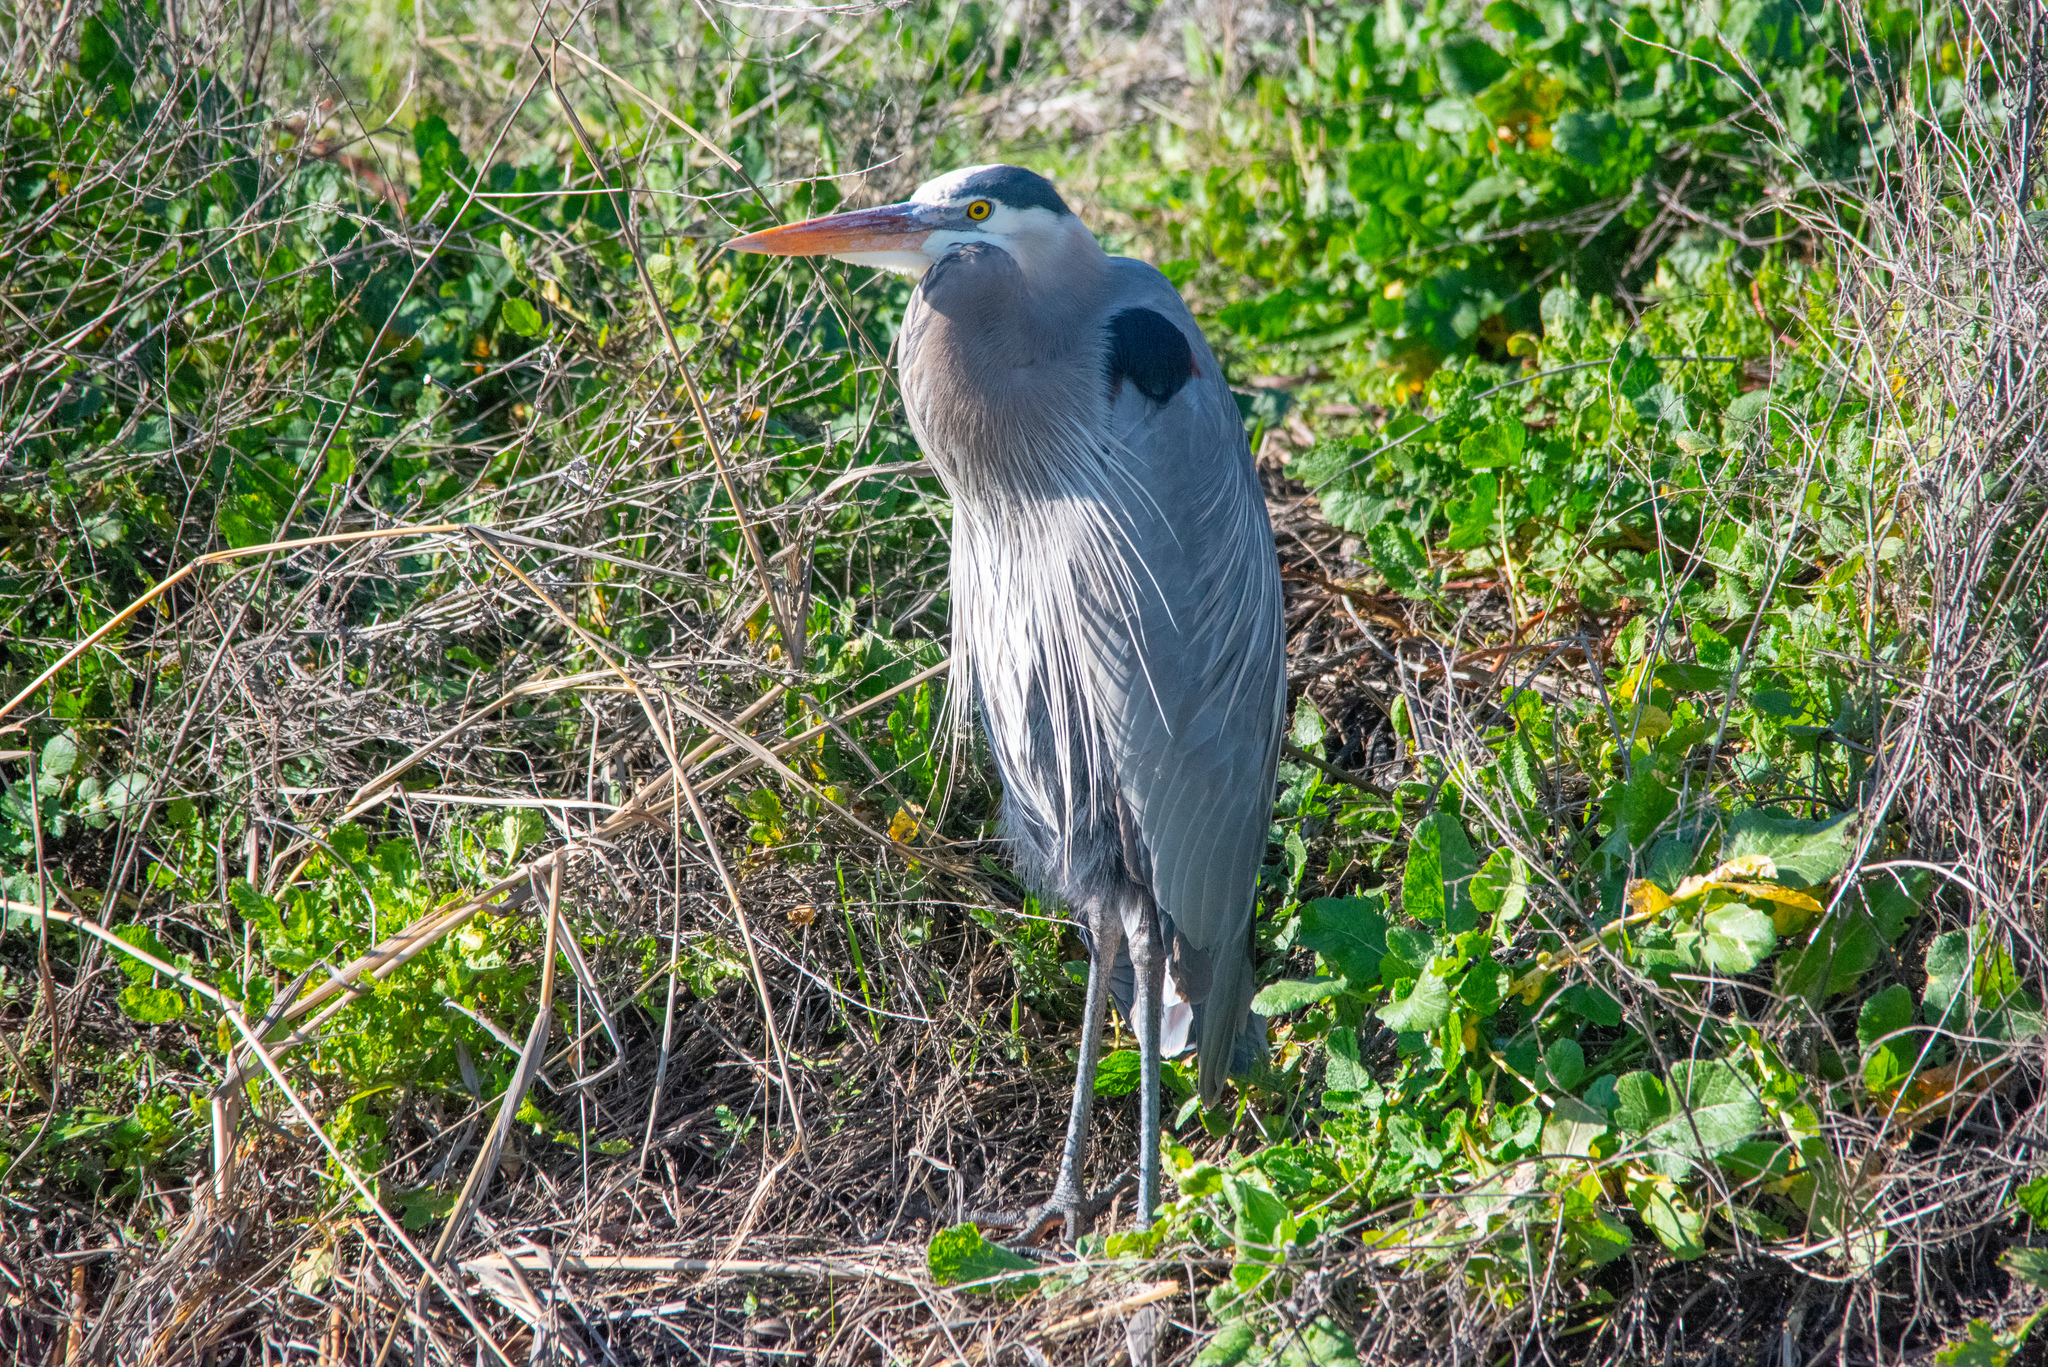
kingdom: Animalia
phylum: Chordata
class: Aves
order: Pelecaniformes
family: Ardeidae
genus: Ardea
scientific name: Ardea herodias
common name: Great blue heron
